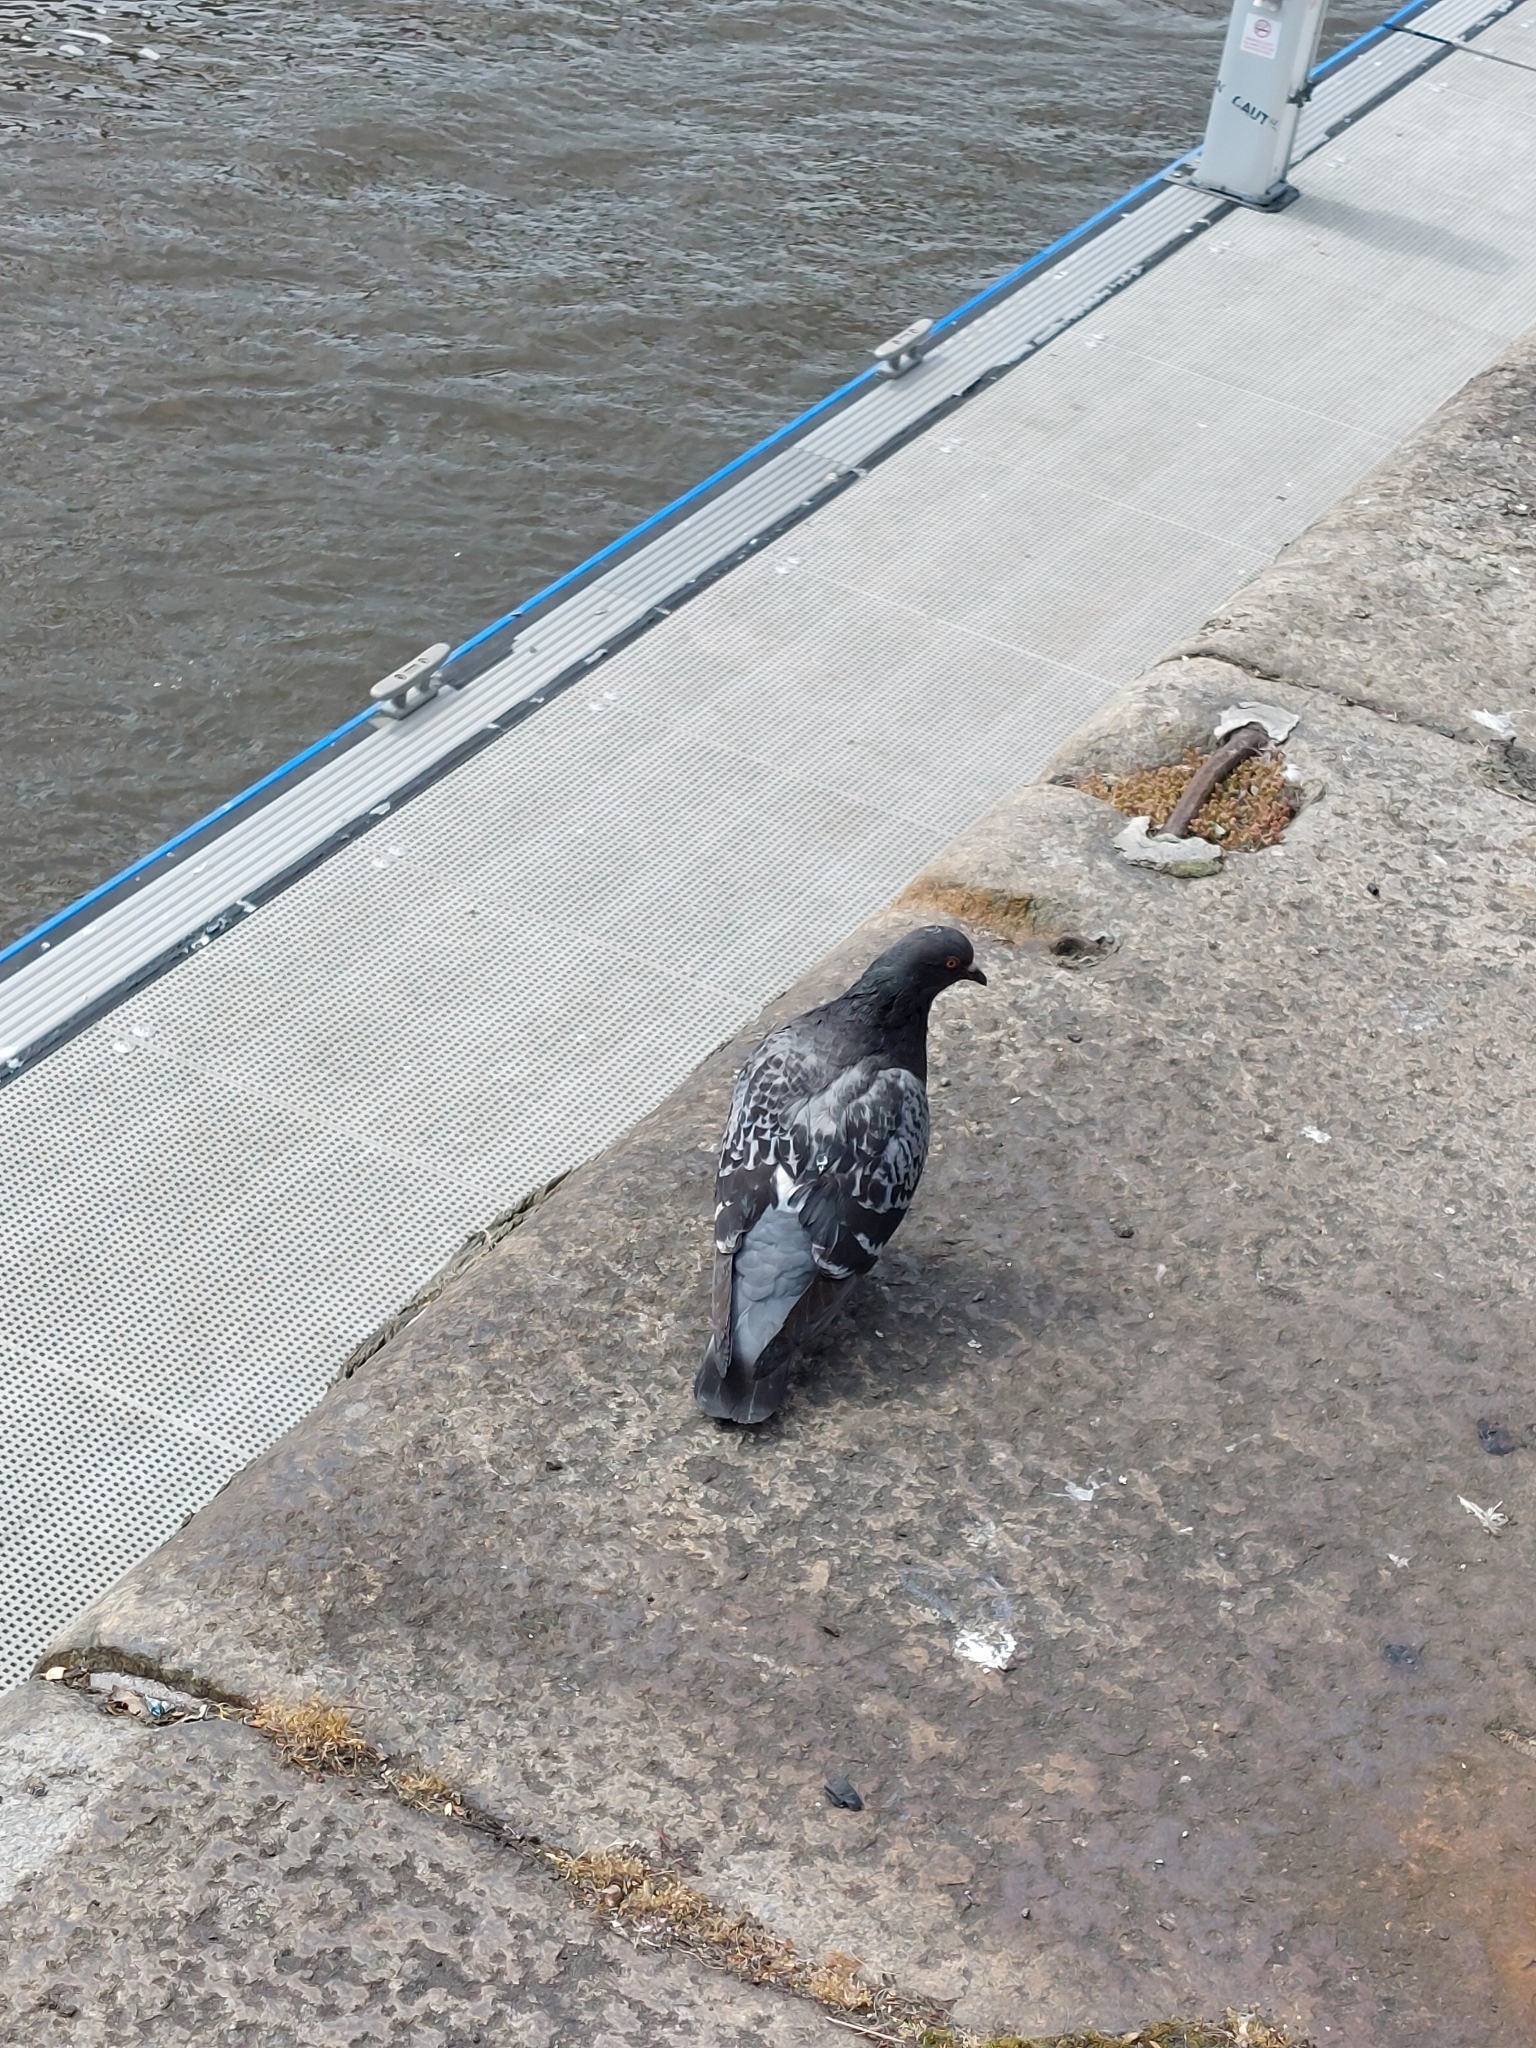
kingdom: Animalia
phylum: Chordata
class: Aves
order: Columbiformes
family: Columbidae
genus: Columba
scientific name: Columba livia
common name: Rock pigeon
